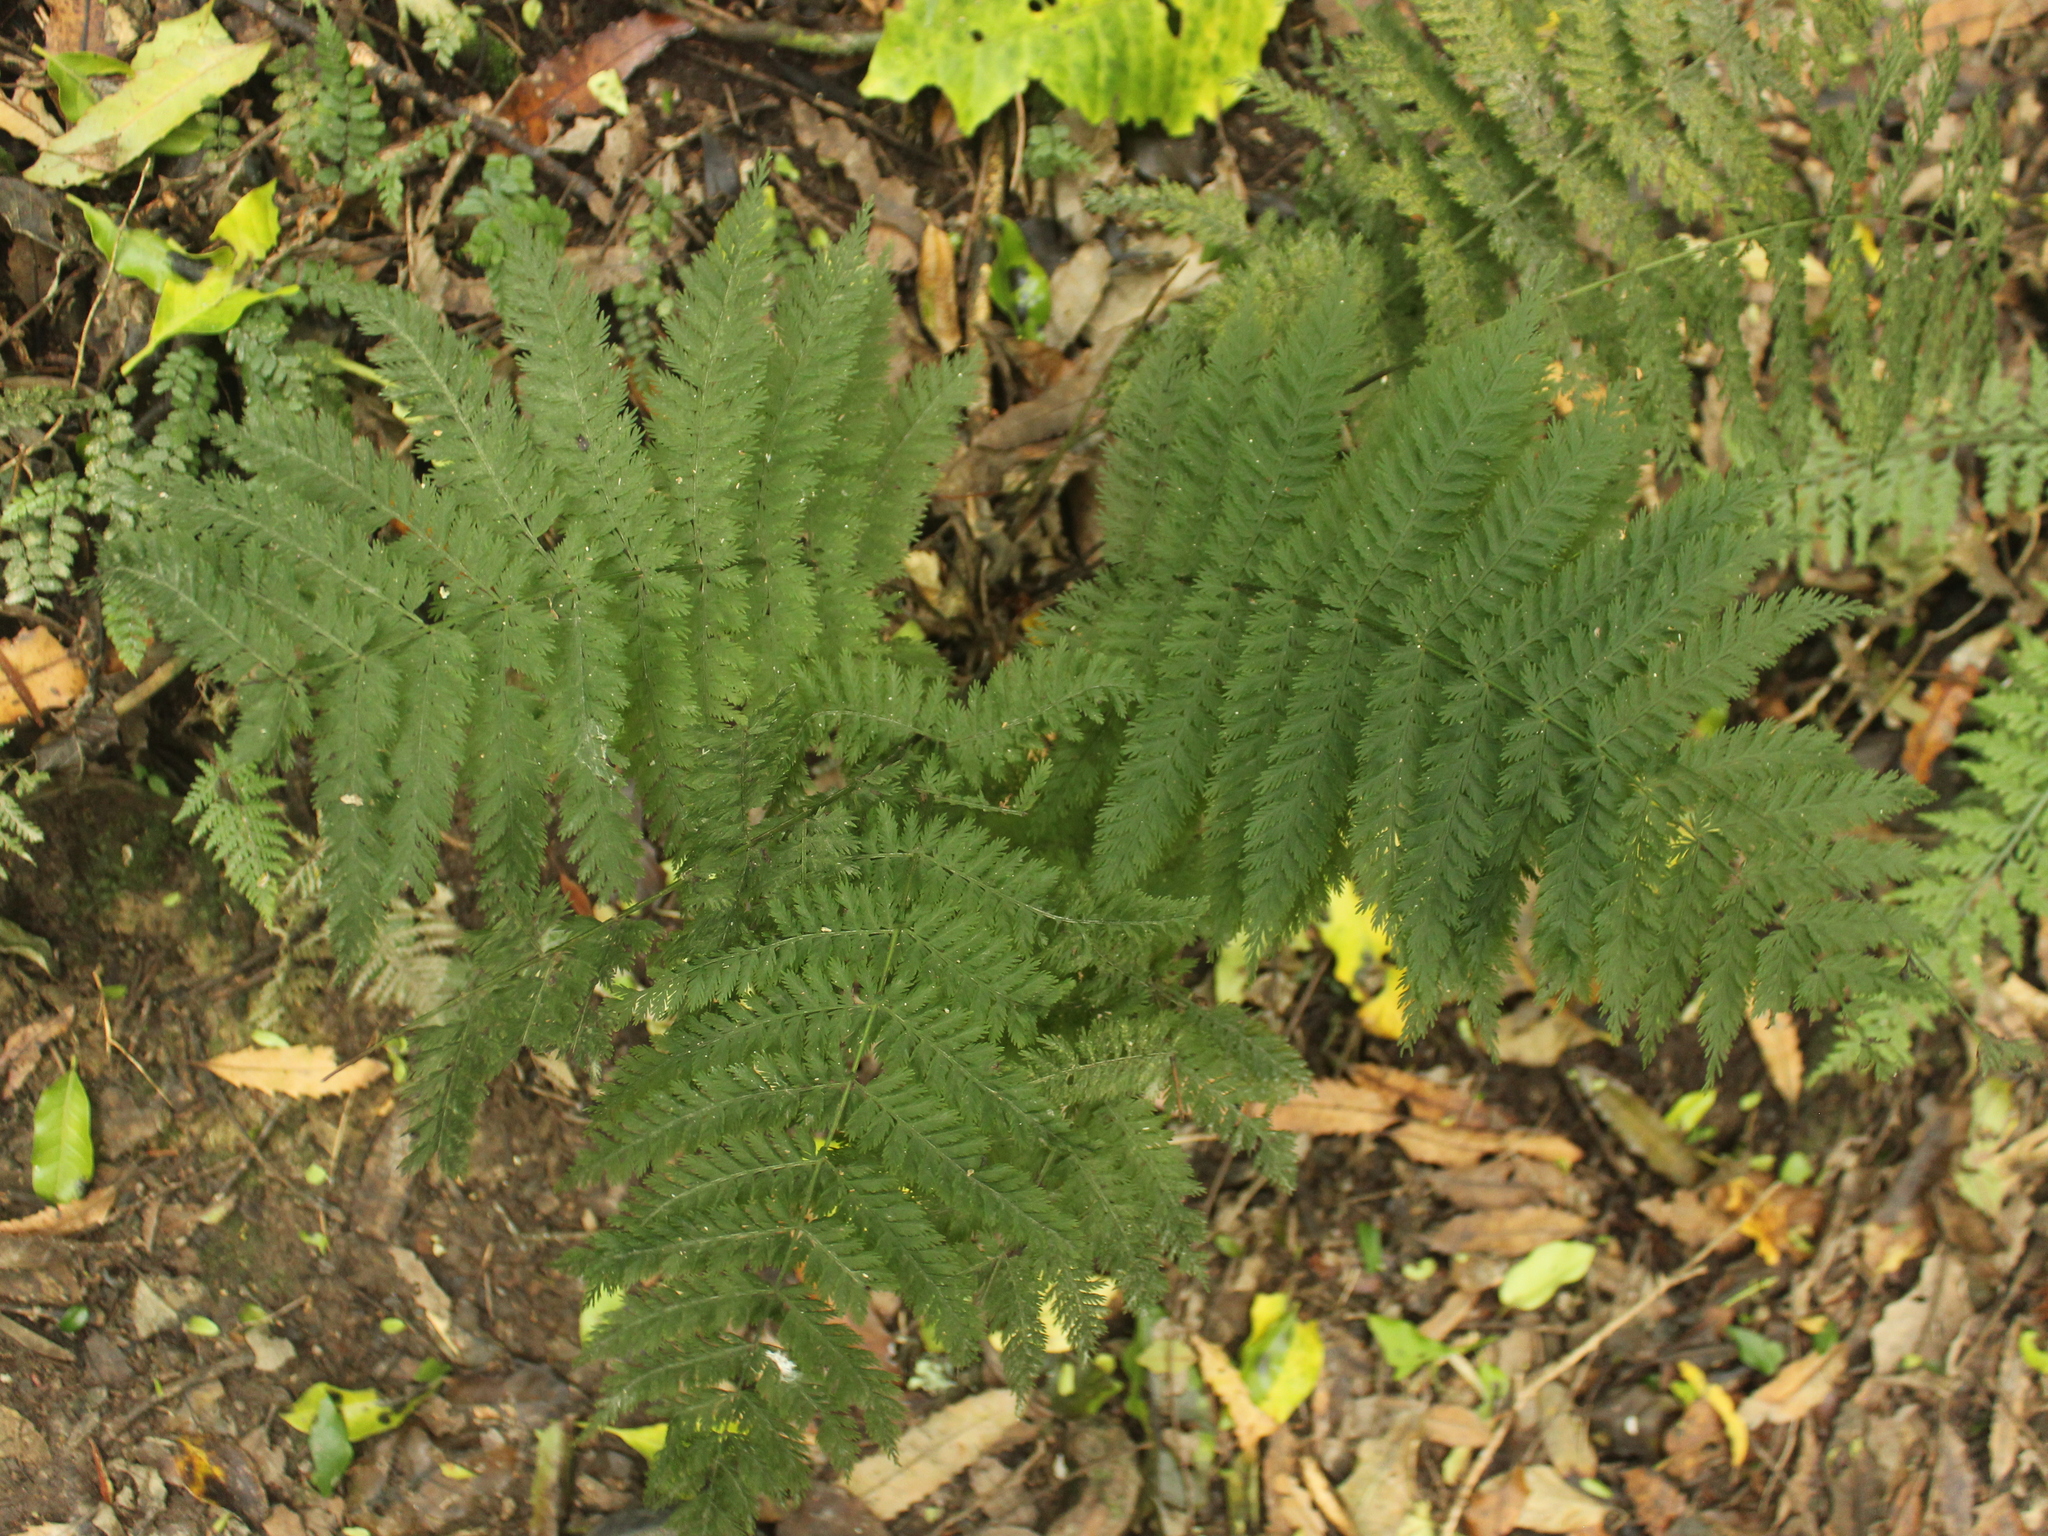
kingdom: Plantae
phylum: Tracheophyta
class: Polypodiopsida
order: Osmundales
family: Osmundaceae
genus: Leptopteris
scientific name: Leptopteris hymenophylloides
